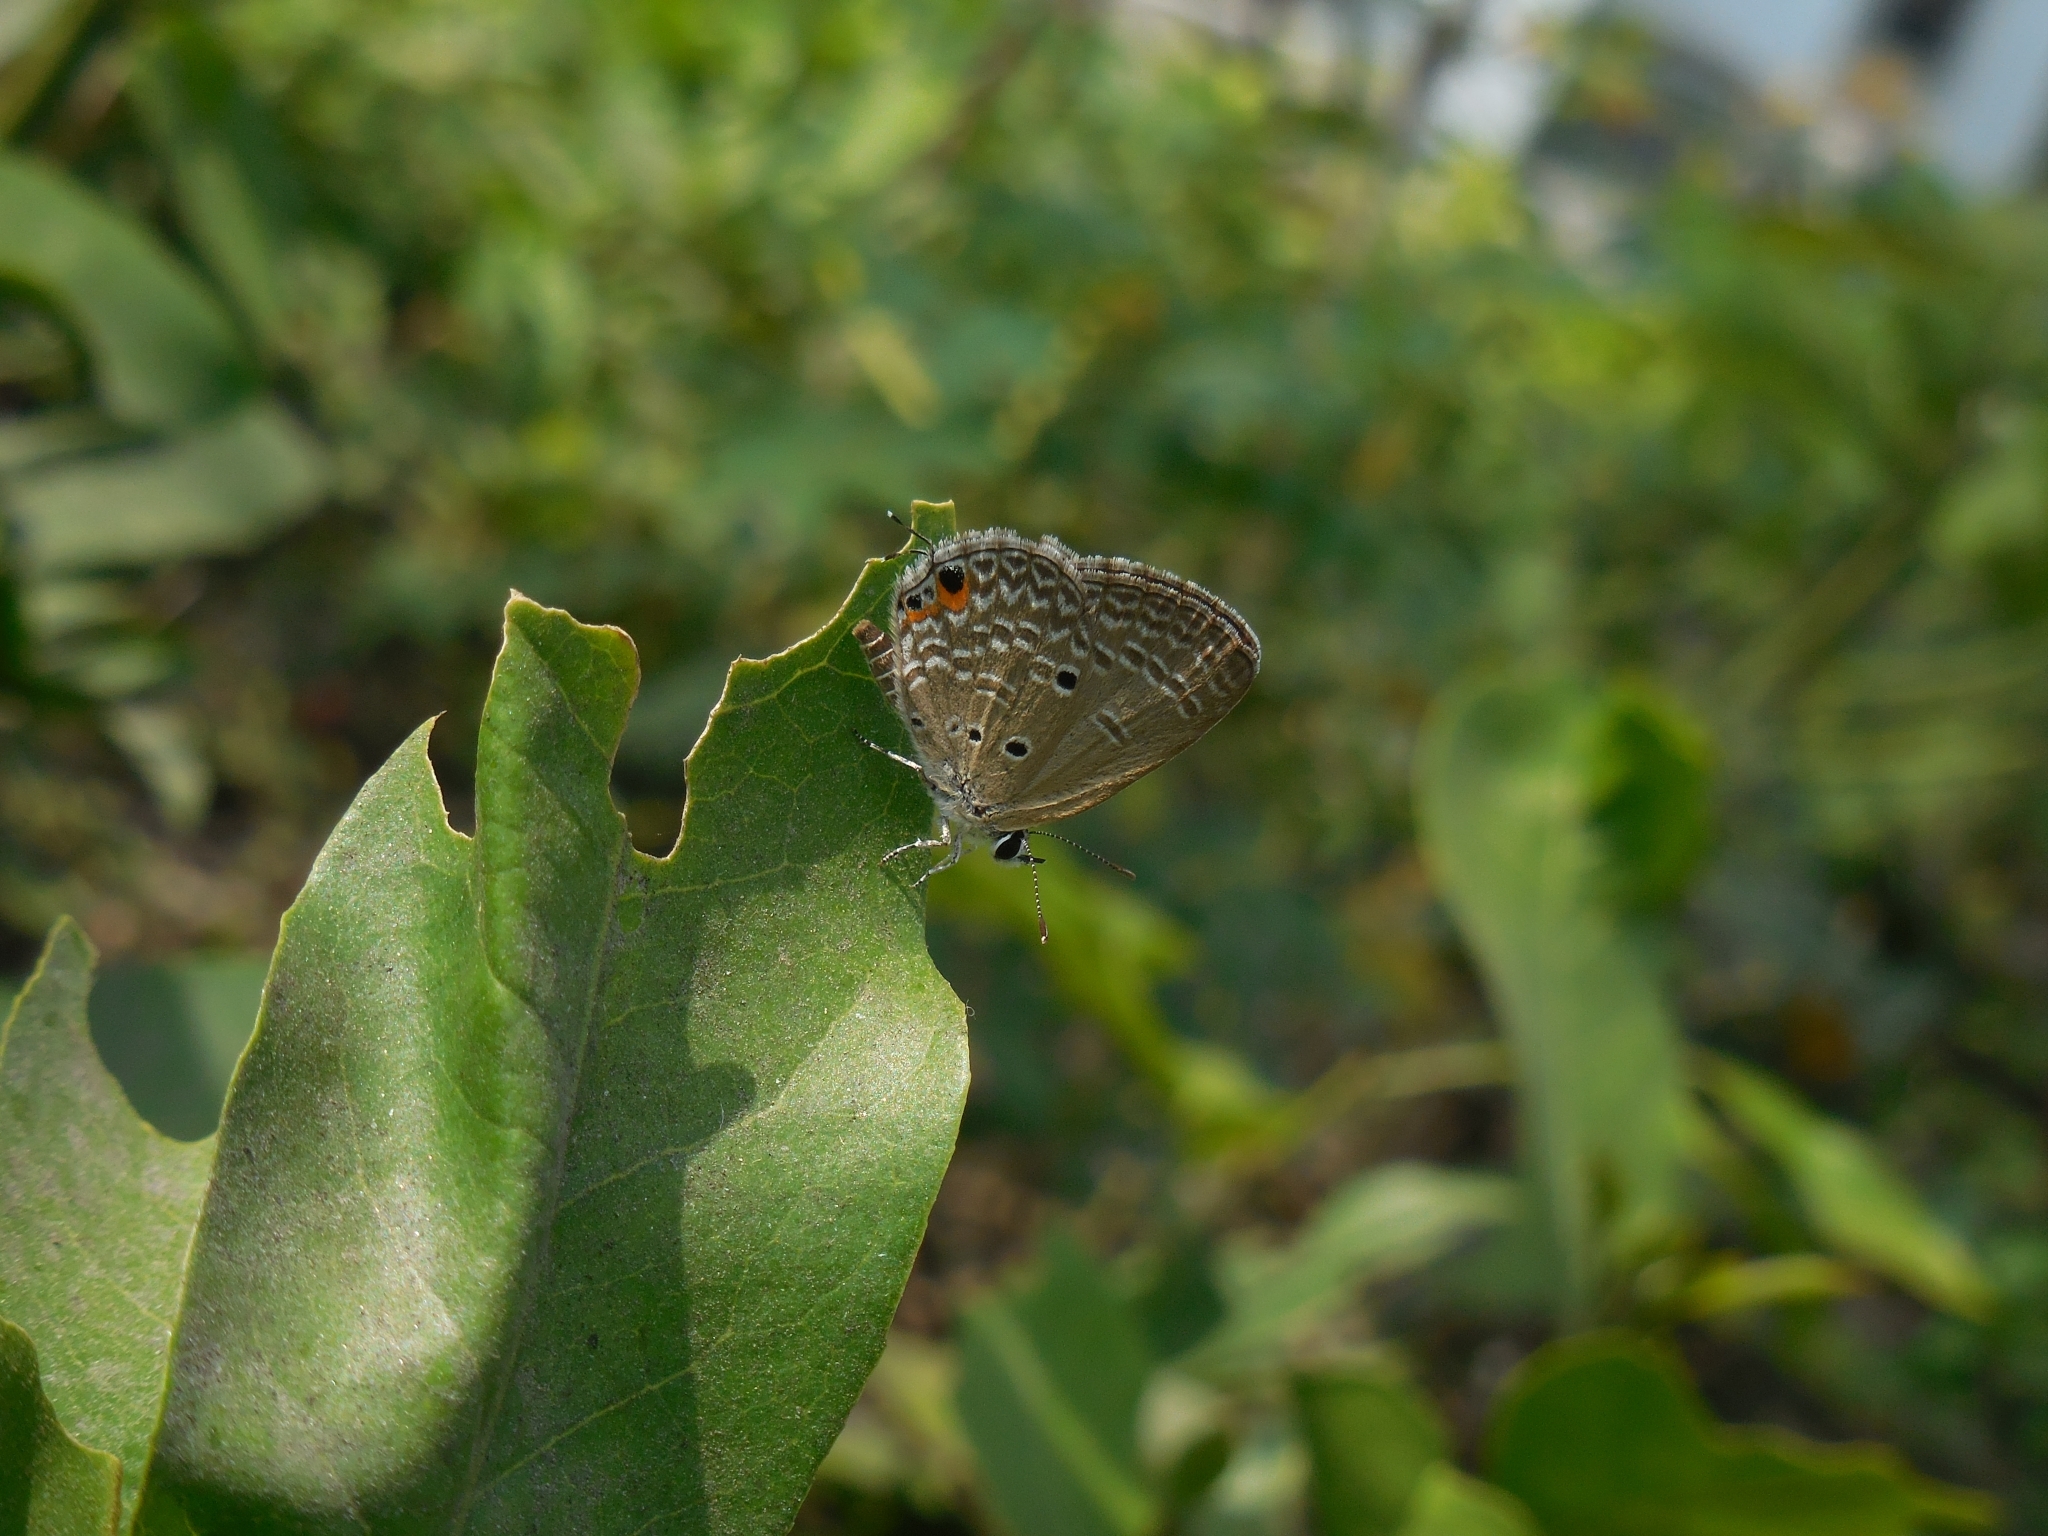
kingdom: Animalia
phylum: Arthropoda
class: Insecta
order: Lepidoptera
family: Lycaenidae
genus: Luthrodes
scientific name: Luthrodes pandava
